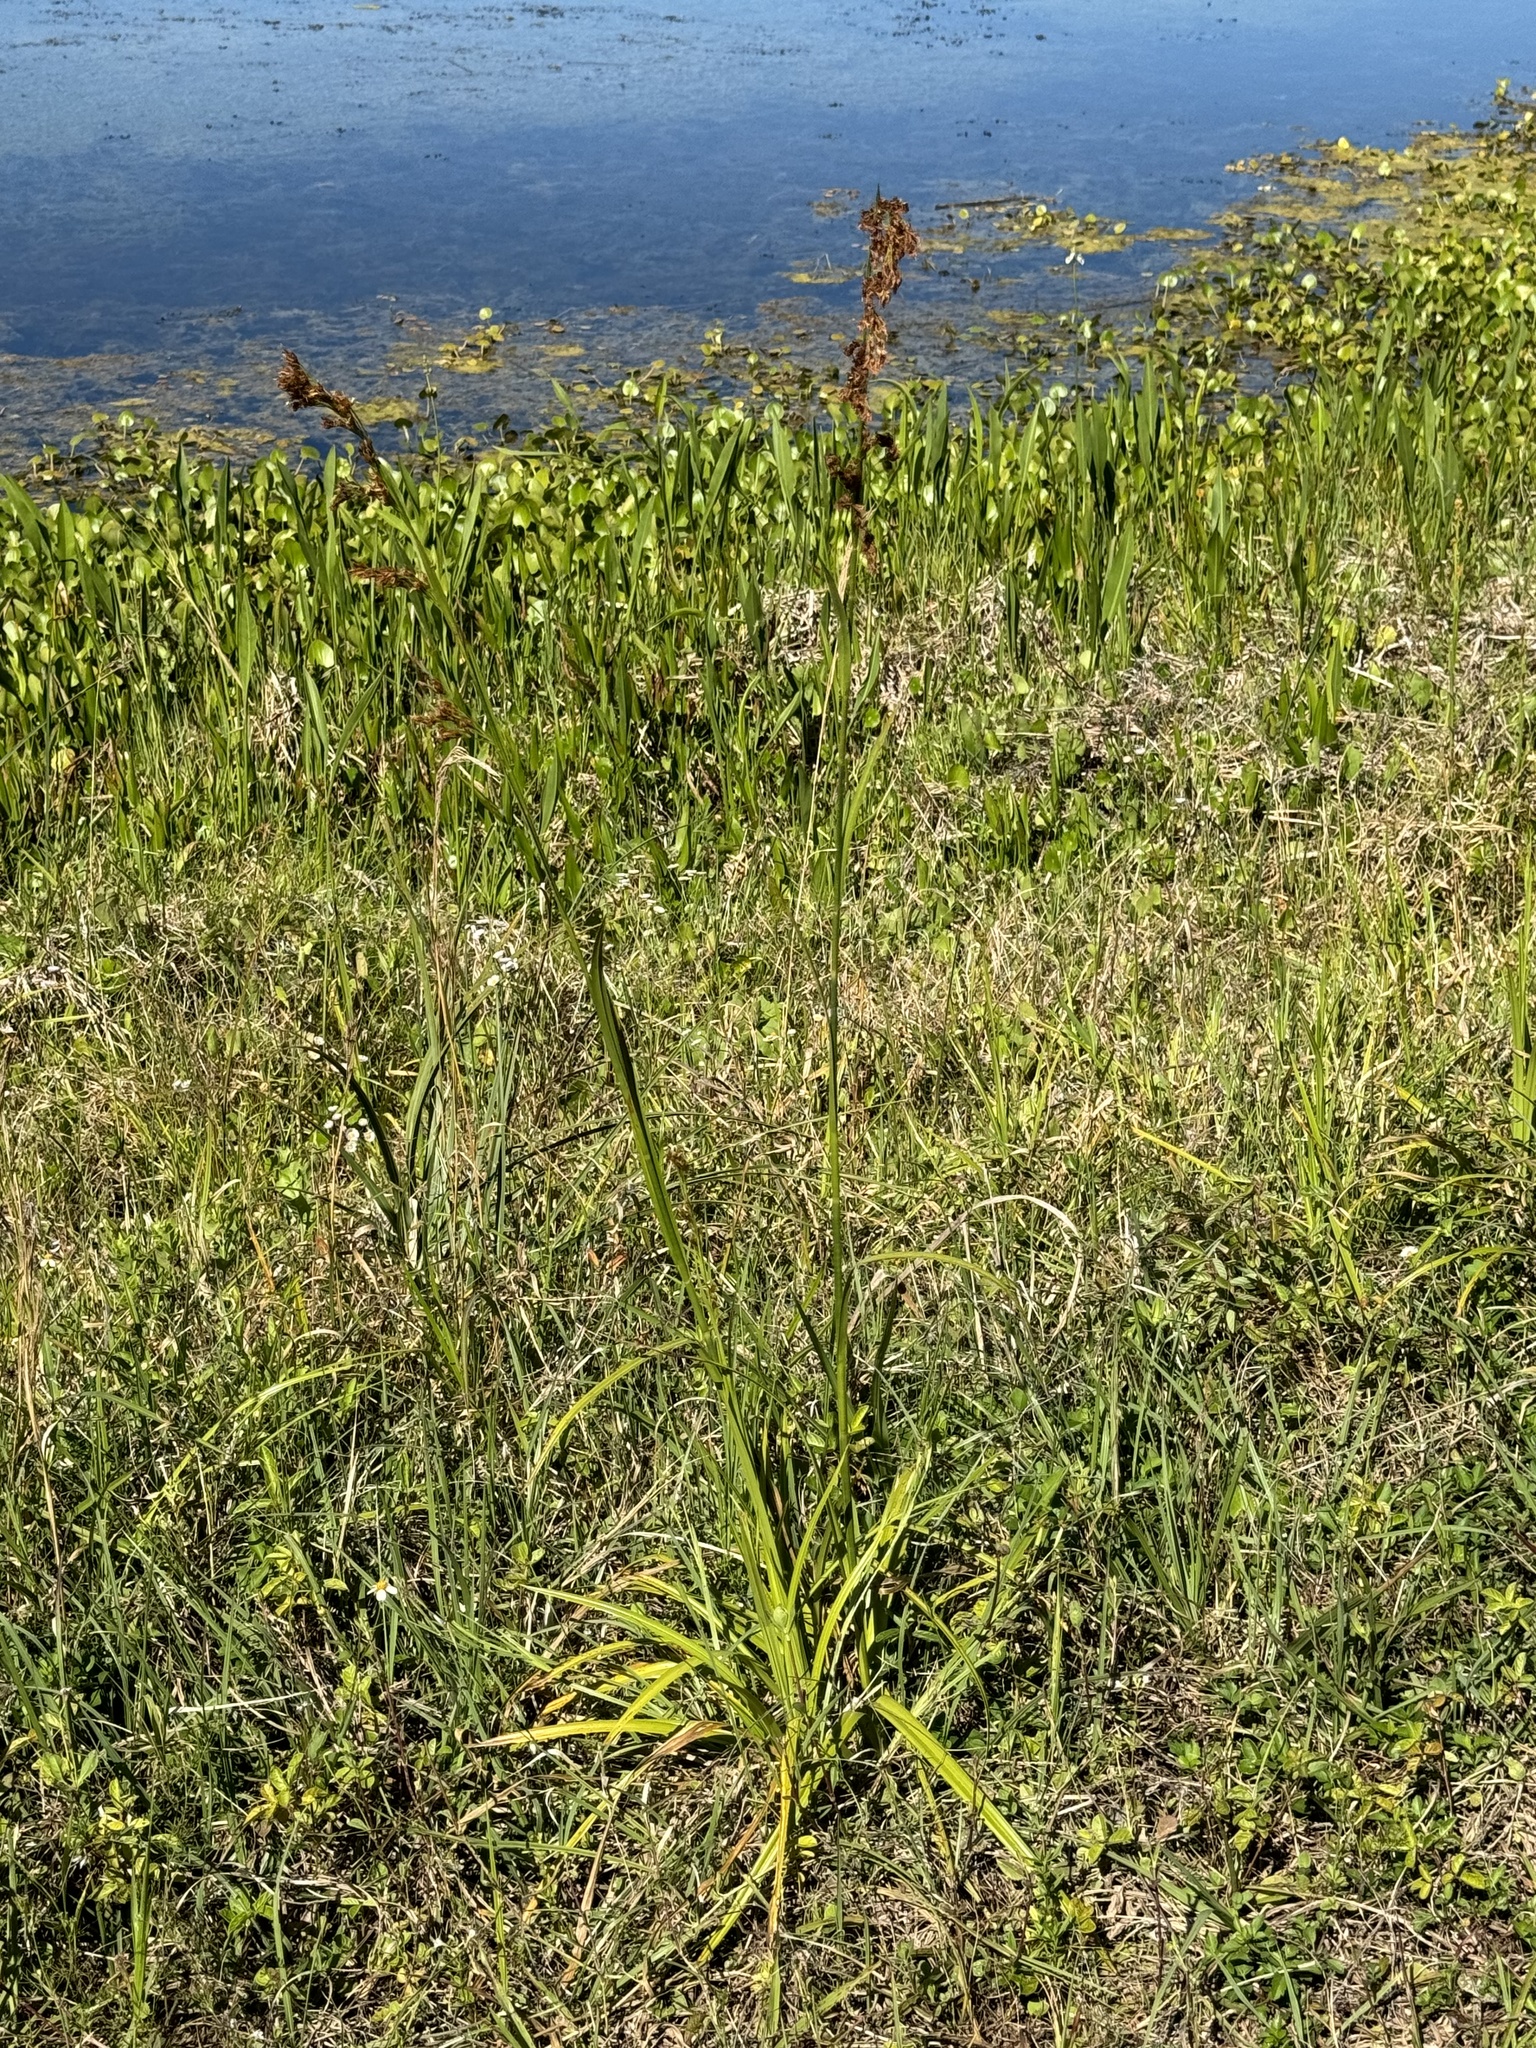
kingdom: Plantae
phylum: Tracheophyta
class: Liliopsida
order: Poales
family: Cyperaceae
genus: Rhynchospora
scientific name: Rhynchospora odorata
